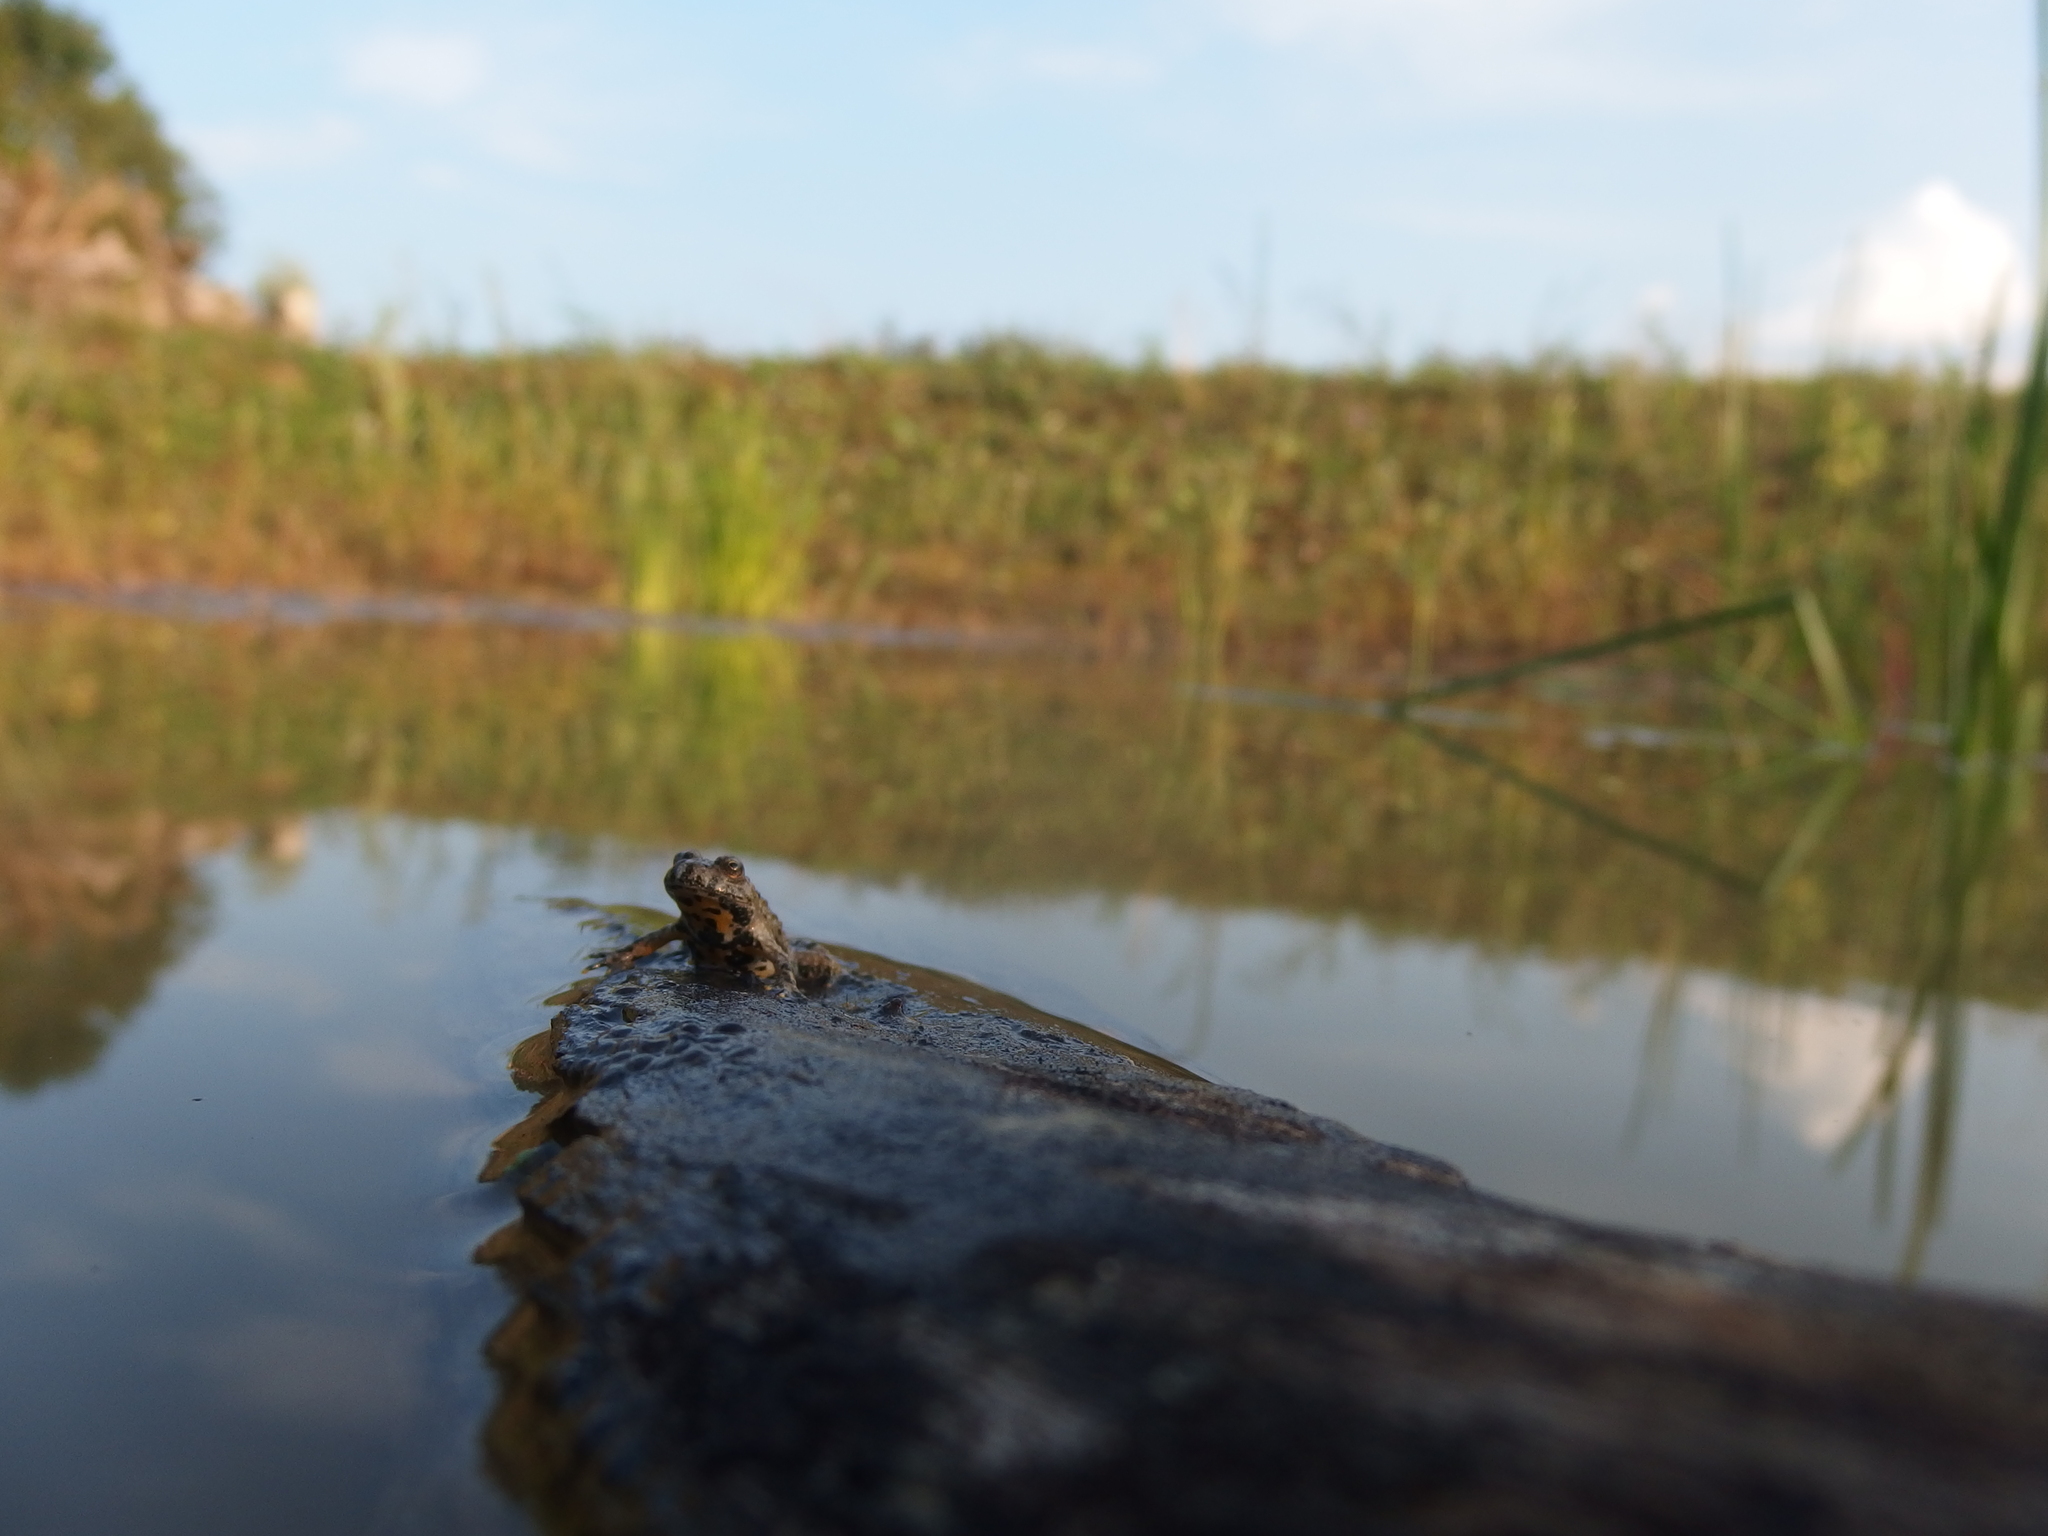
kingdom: Animalia
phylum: Chordata
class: Amphibia
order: Anura
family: Bombinatoridae
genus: Bombina
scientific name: Bombina variegata
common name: Yellow-bellied toad
